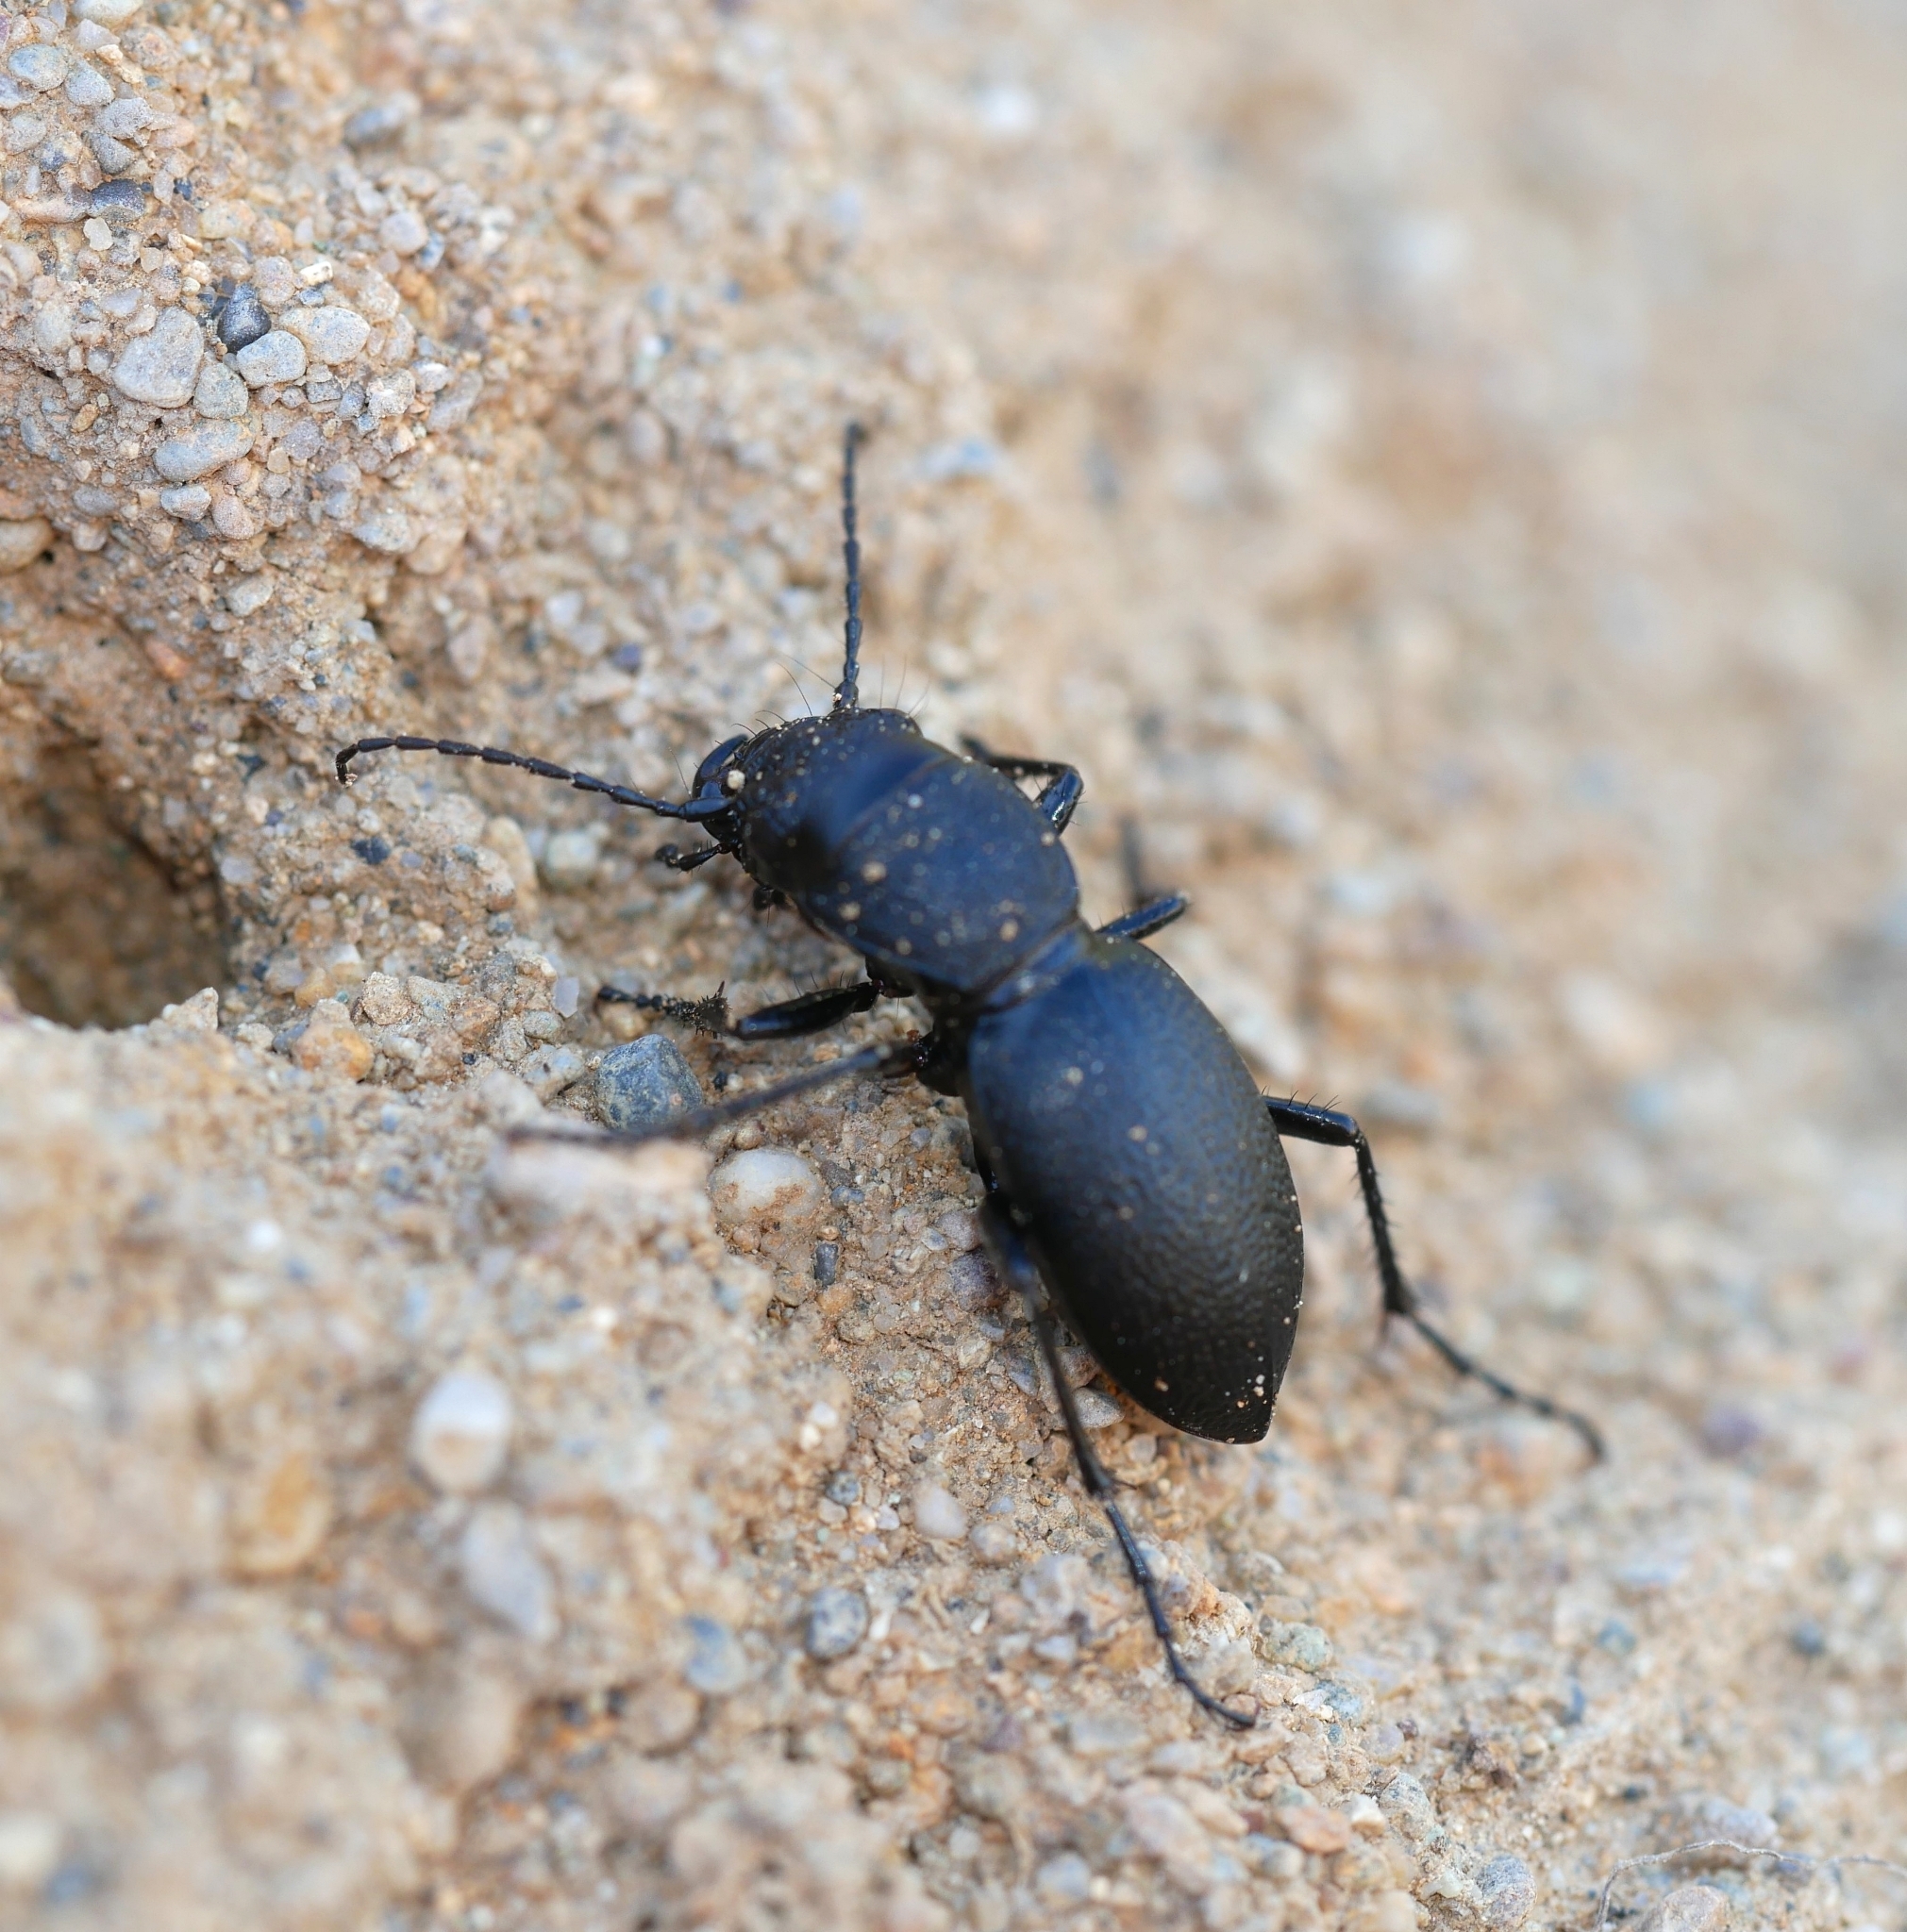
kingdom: Animalia
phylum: Arthropoda
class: Insecta
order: Coleoptera
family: Carabidae
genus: Omus
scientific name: Omus californicus
